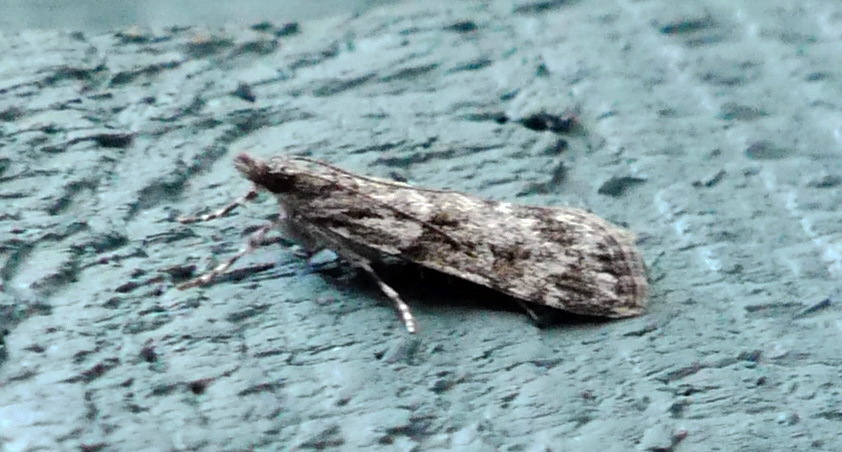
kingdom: Animalia
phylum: Arthropoda
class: Insecta
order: Lepidoptera
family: Crambidae
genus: Scoparia
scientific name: Scoparia biplagialis
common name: Double-striped scoparia moth
